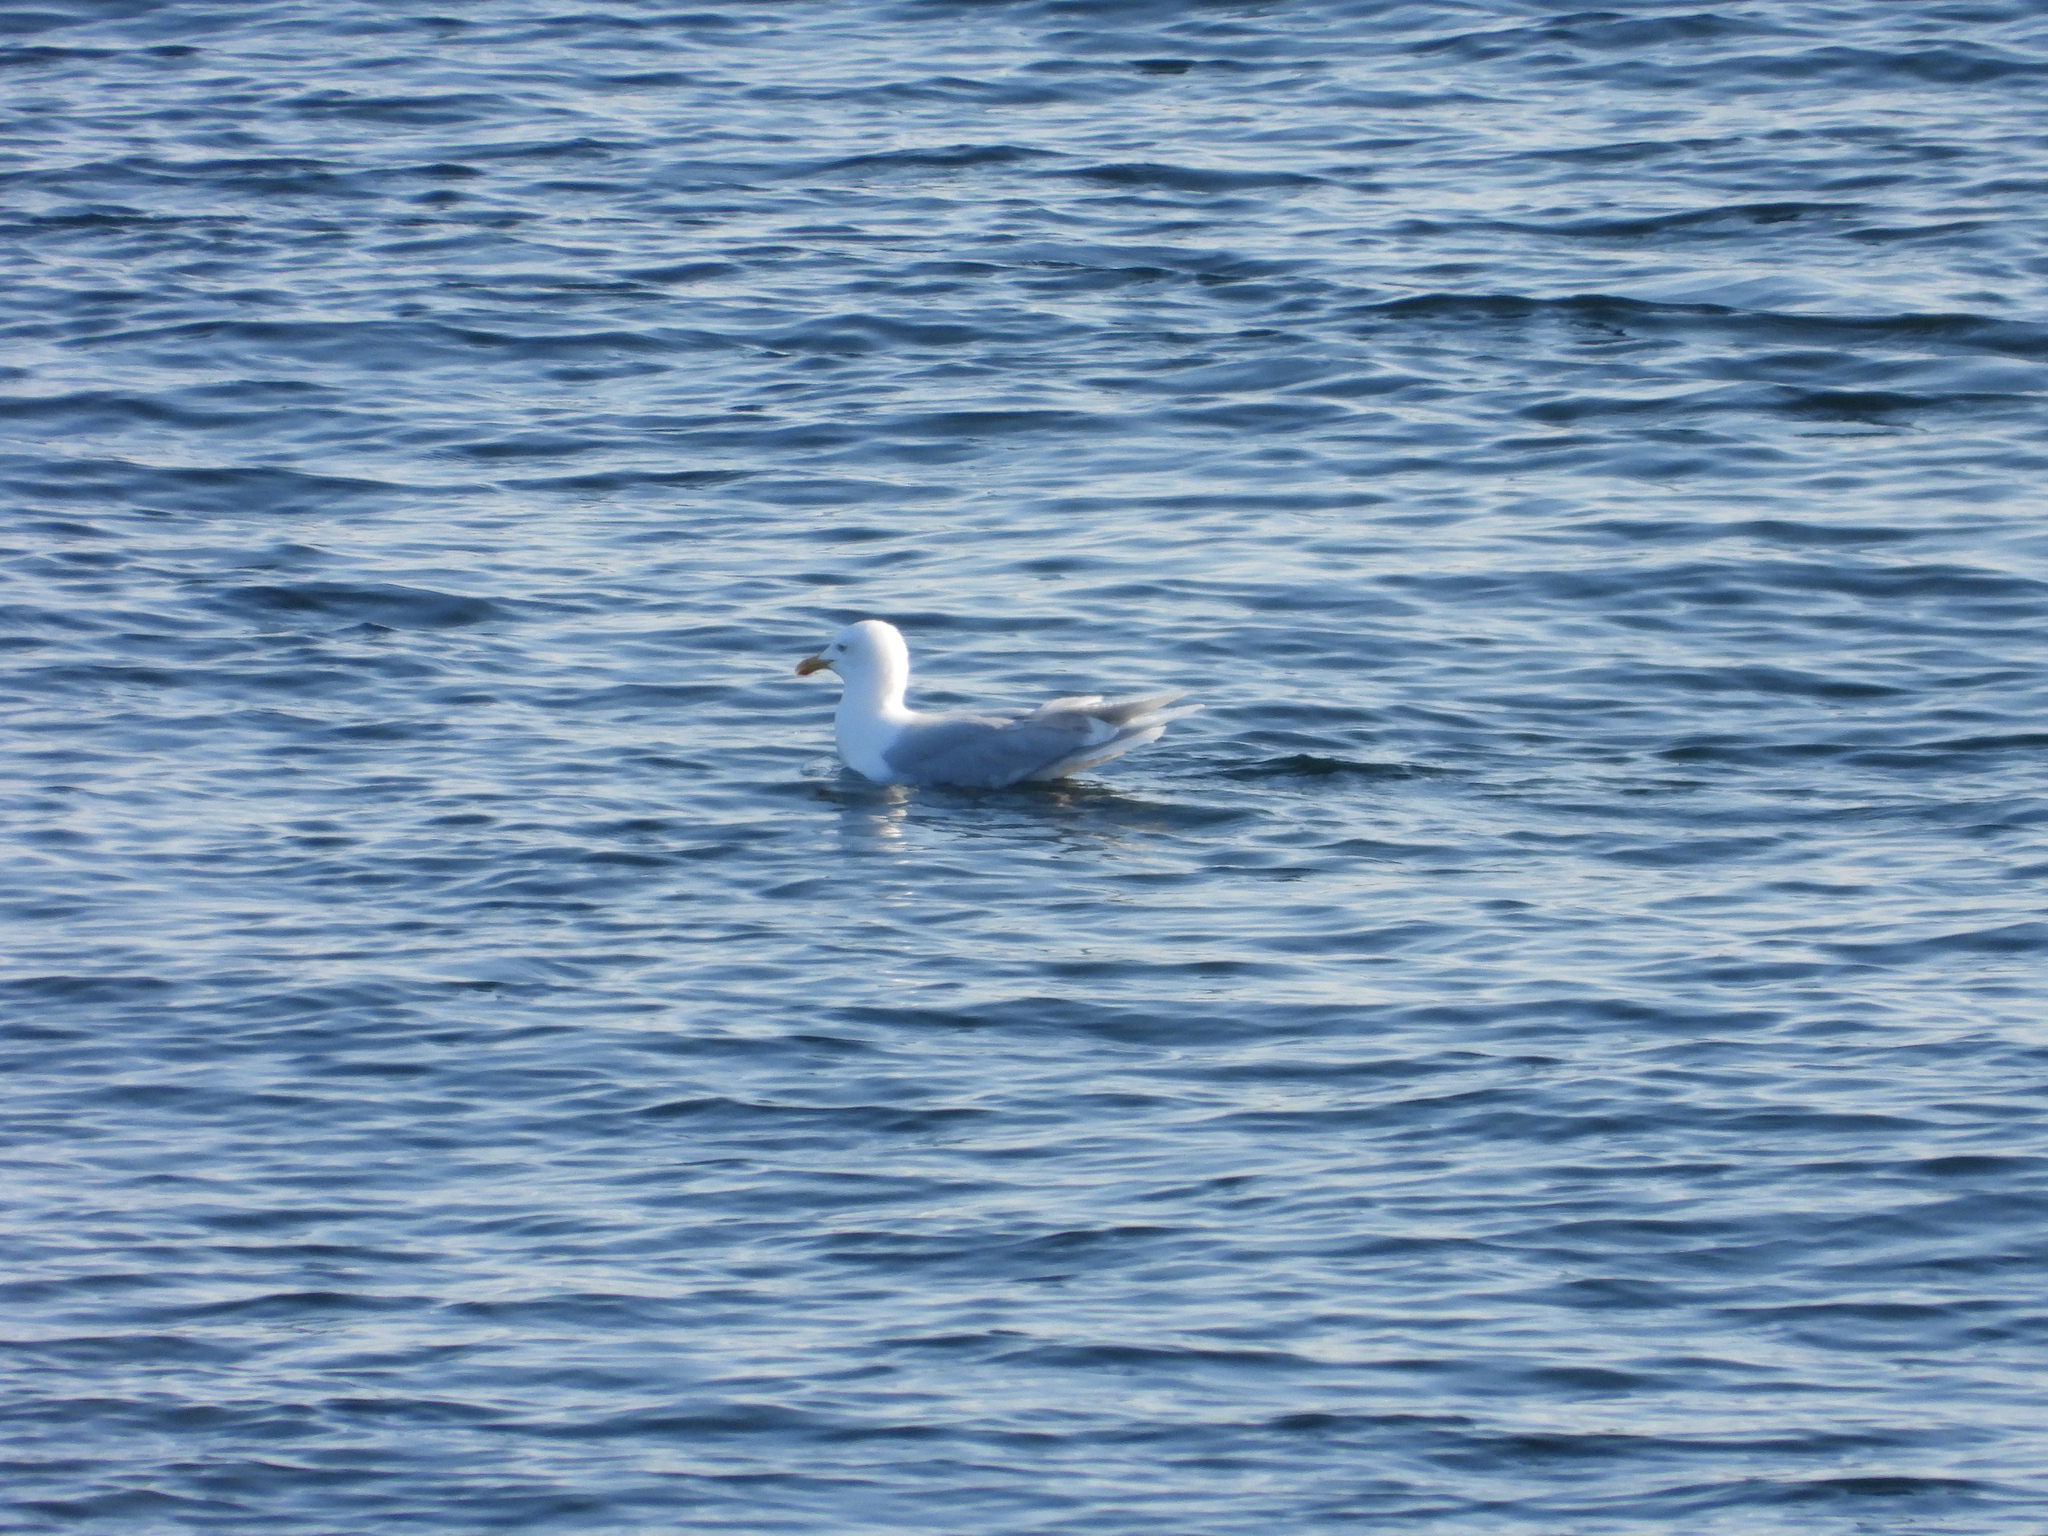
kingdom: Animalia
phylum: Chordata
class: Aves
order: Charadriiformes
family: Laridae
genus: Larus
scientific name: Larus glaucoides
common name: Iceland gull
